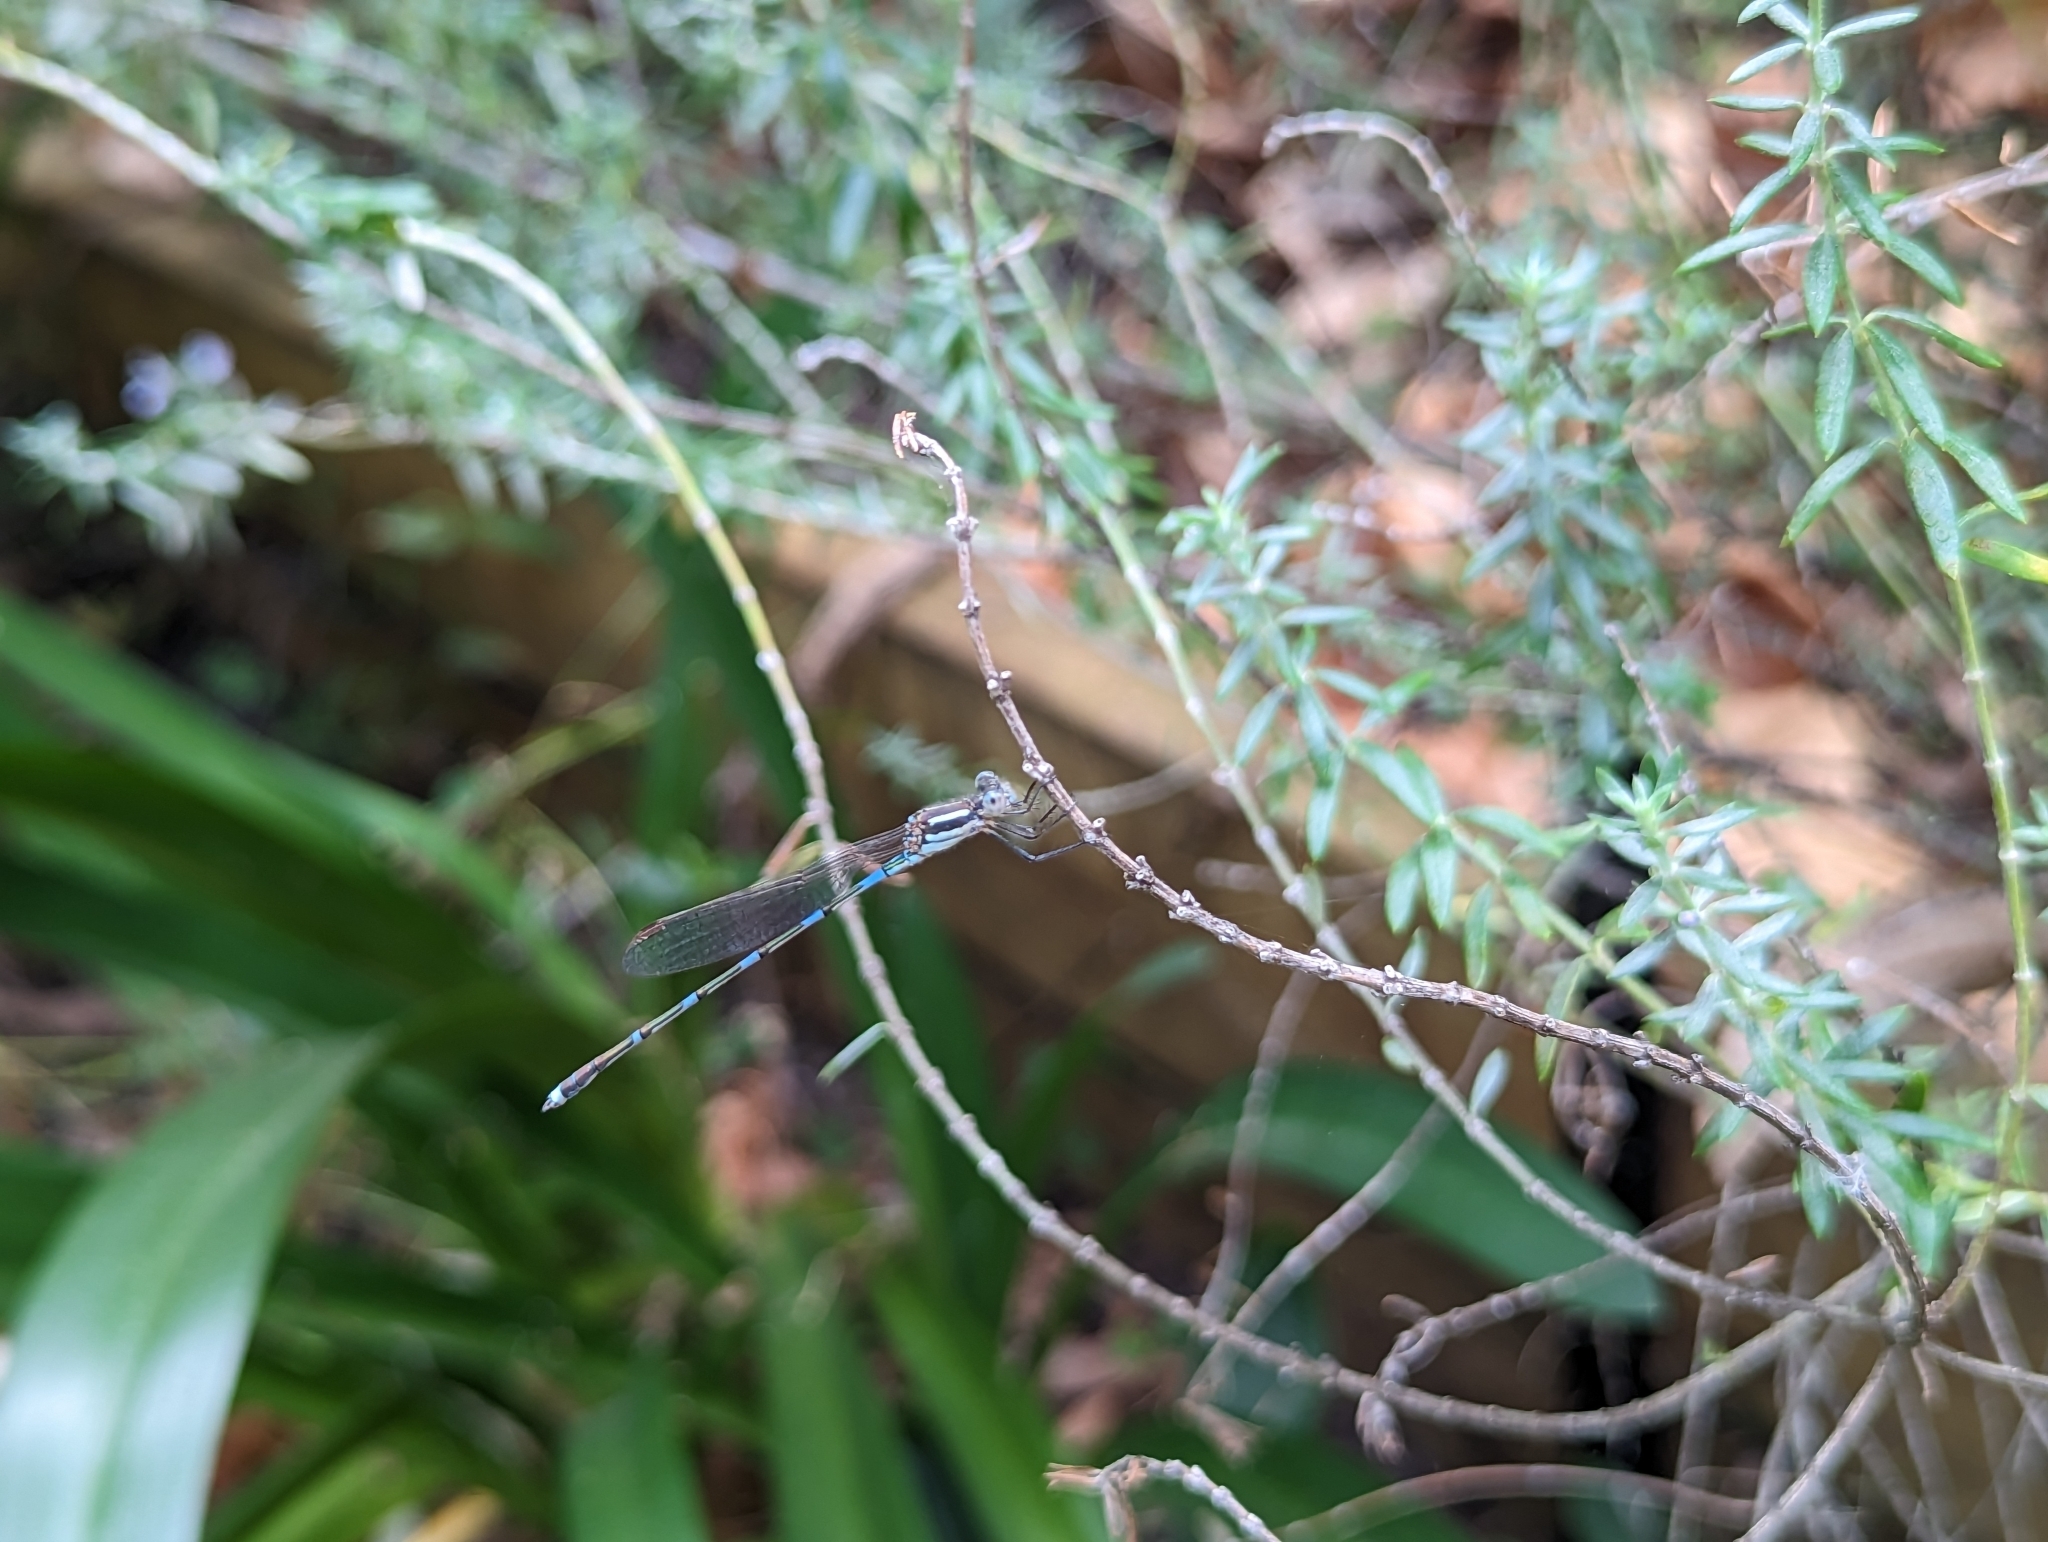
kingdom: Animalia
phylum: Arthropoda
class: Insecta
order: Odonata
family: Lestidae
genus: Austrolestes
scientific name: Austrolestes leda
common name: Wandering ringtail
